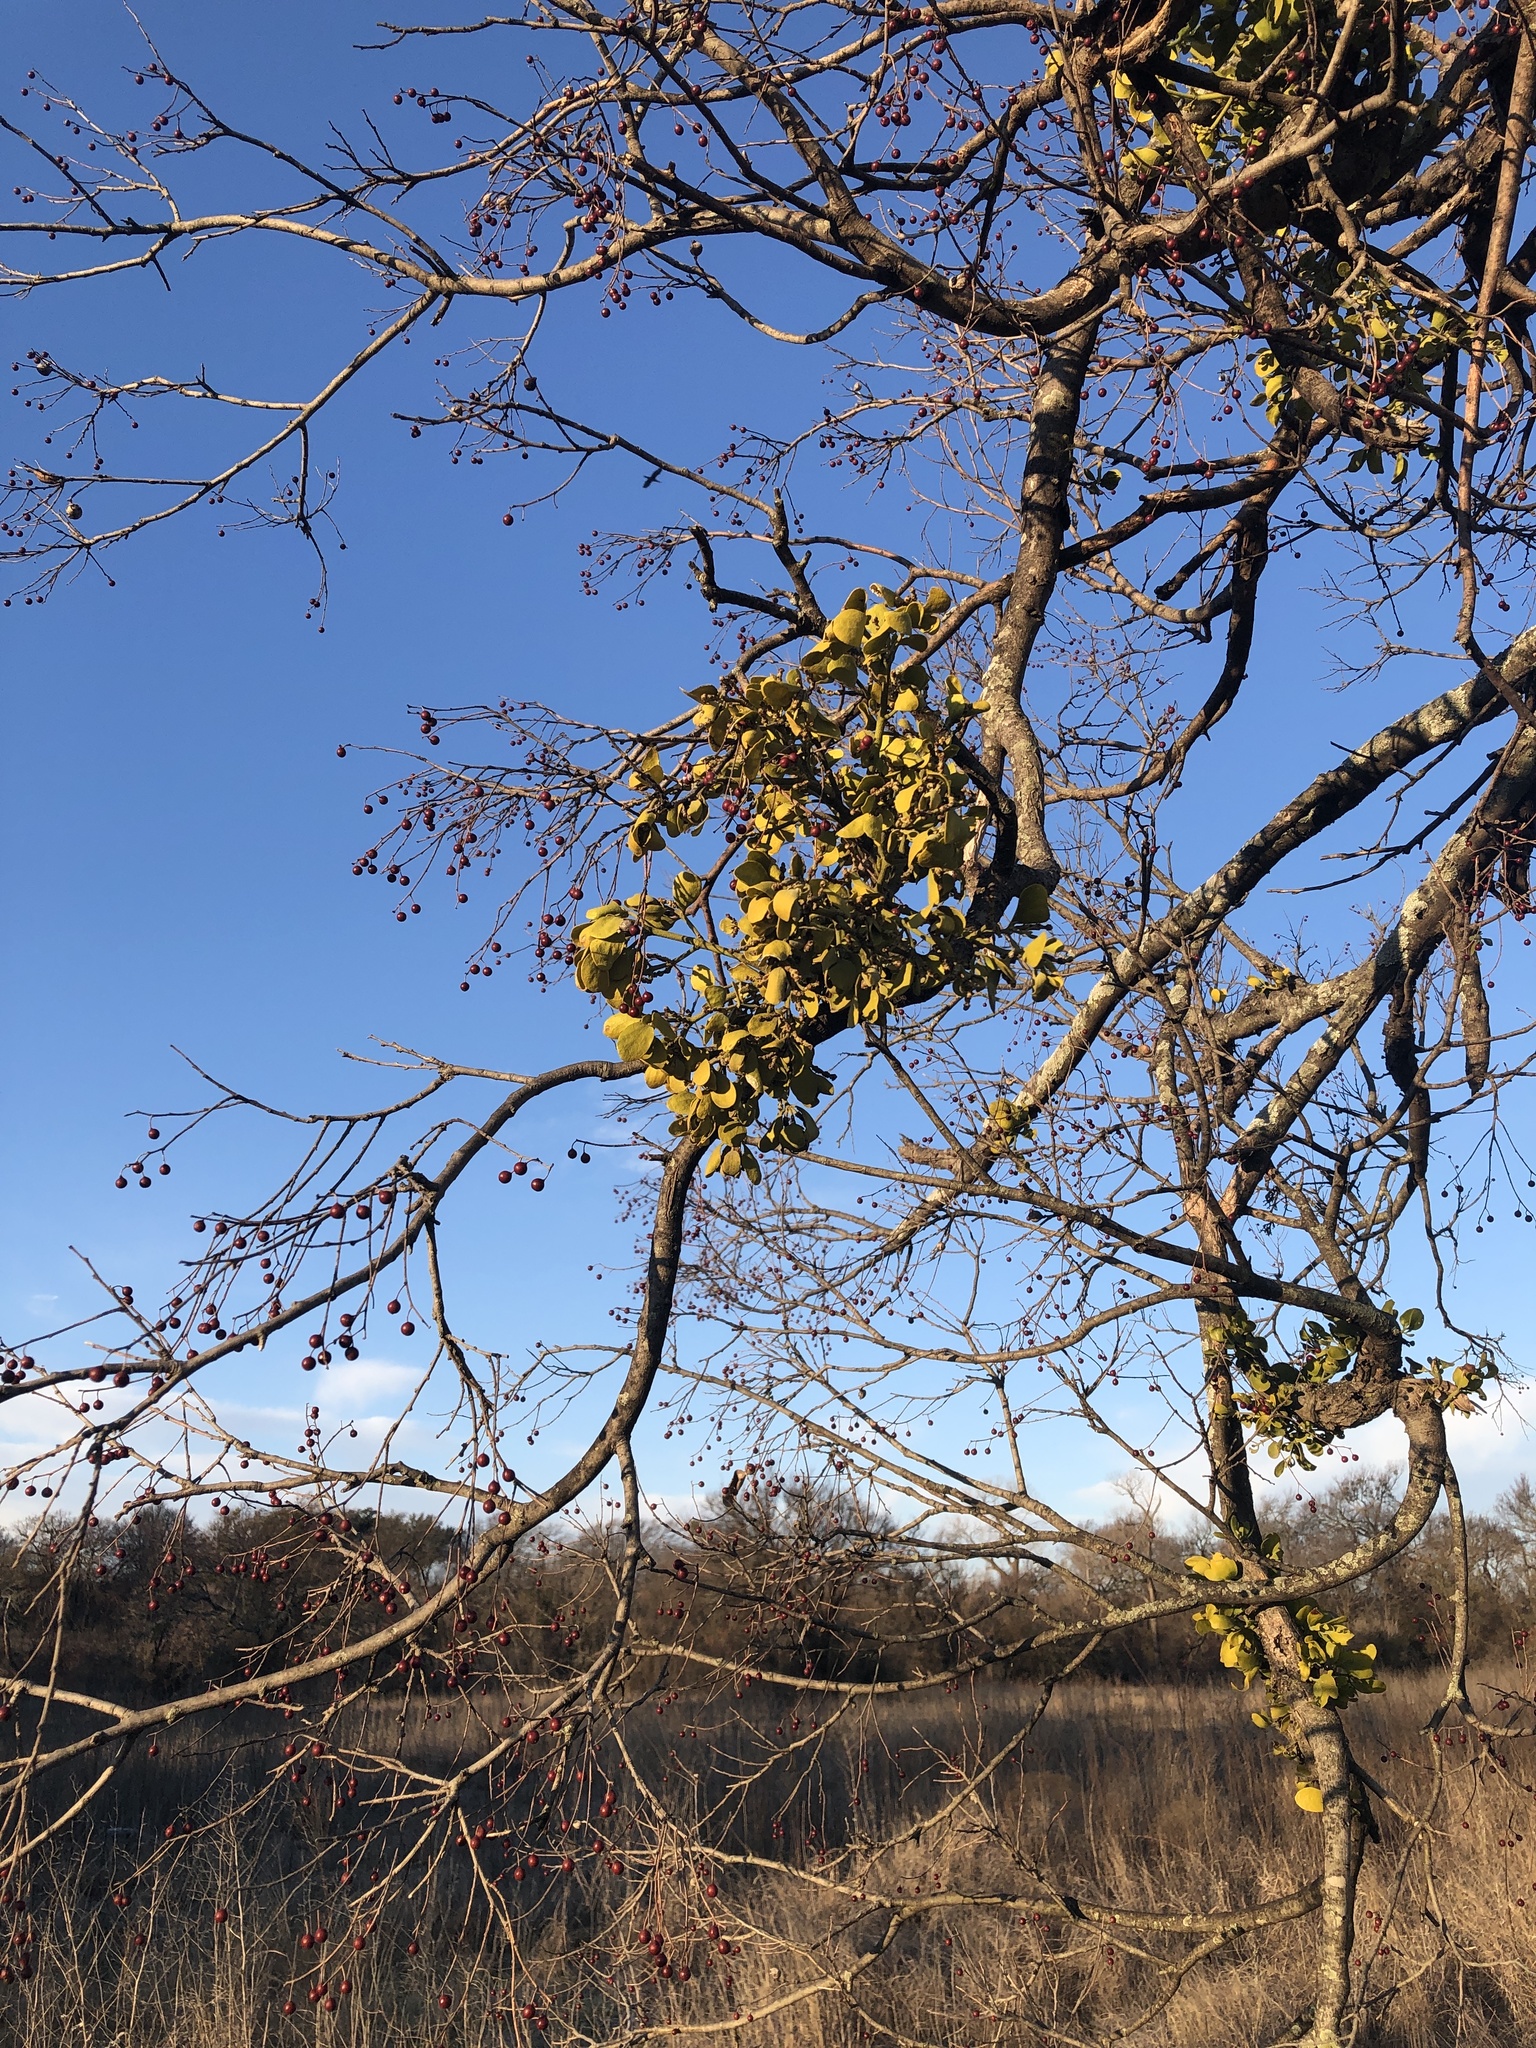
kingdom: Plantae
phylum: Tracheophyta
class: Magnoliopsida
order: Santalales
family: Viscaceae
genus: Phoradendron
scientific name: Phoradendron leucarpum
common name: Pacific mistletoe
